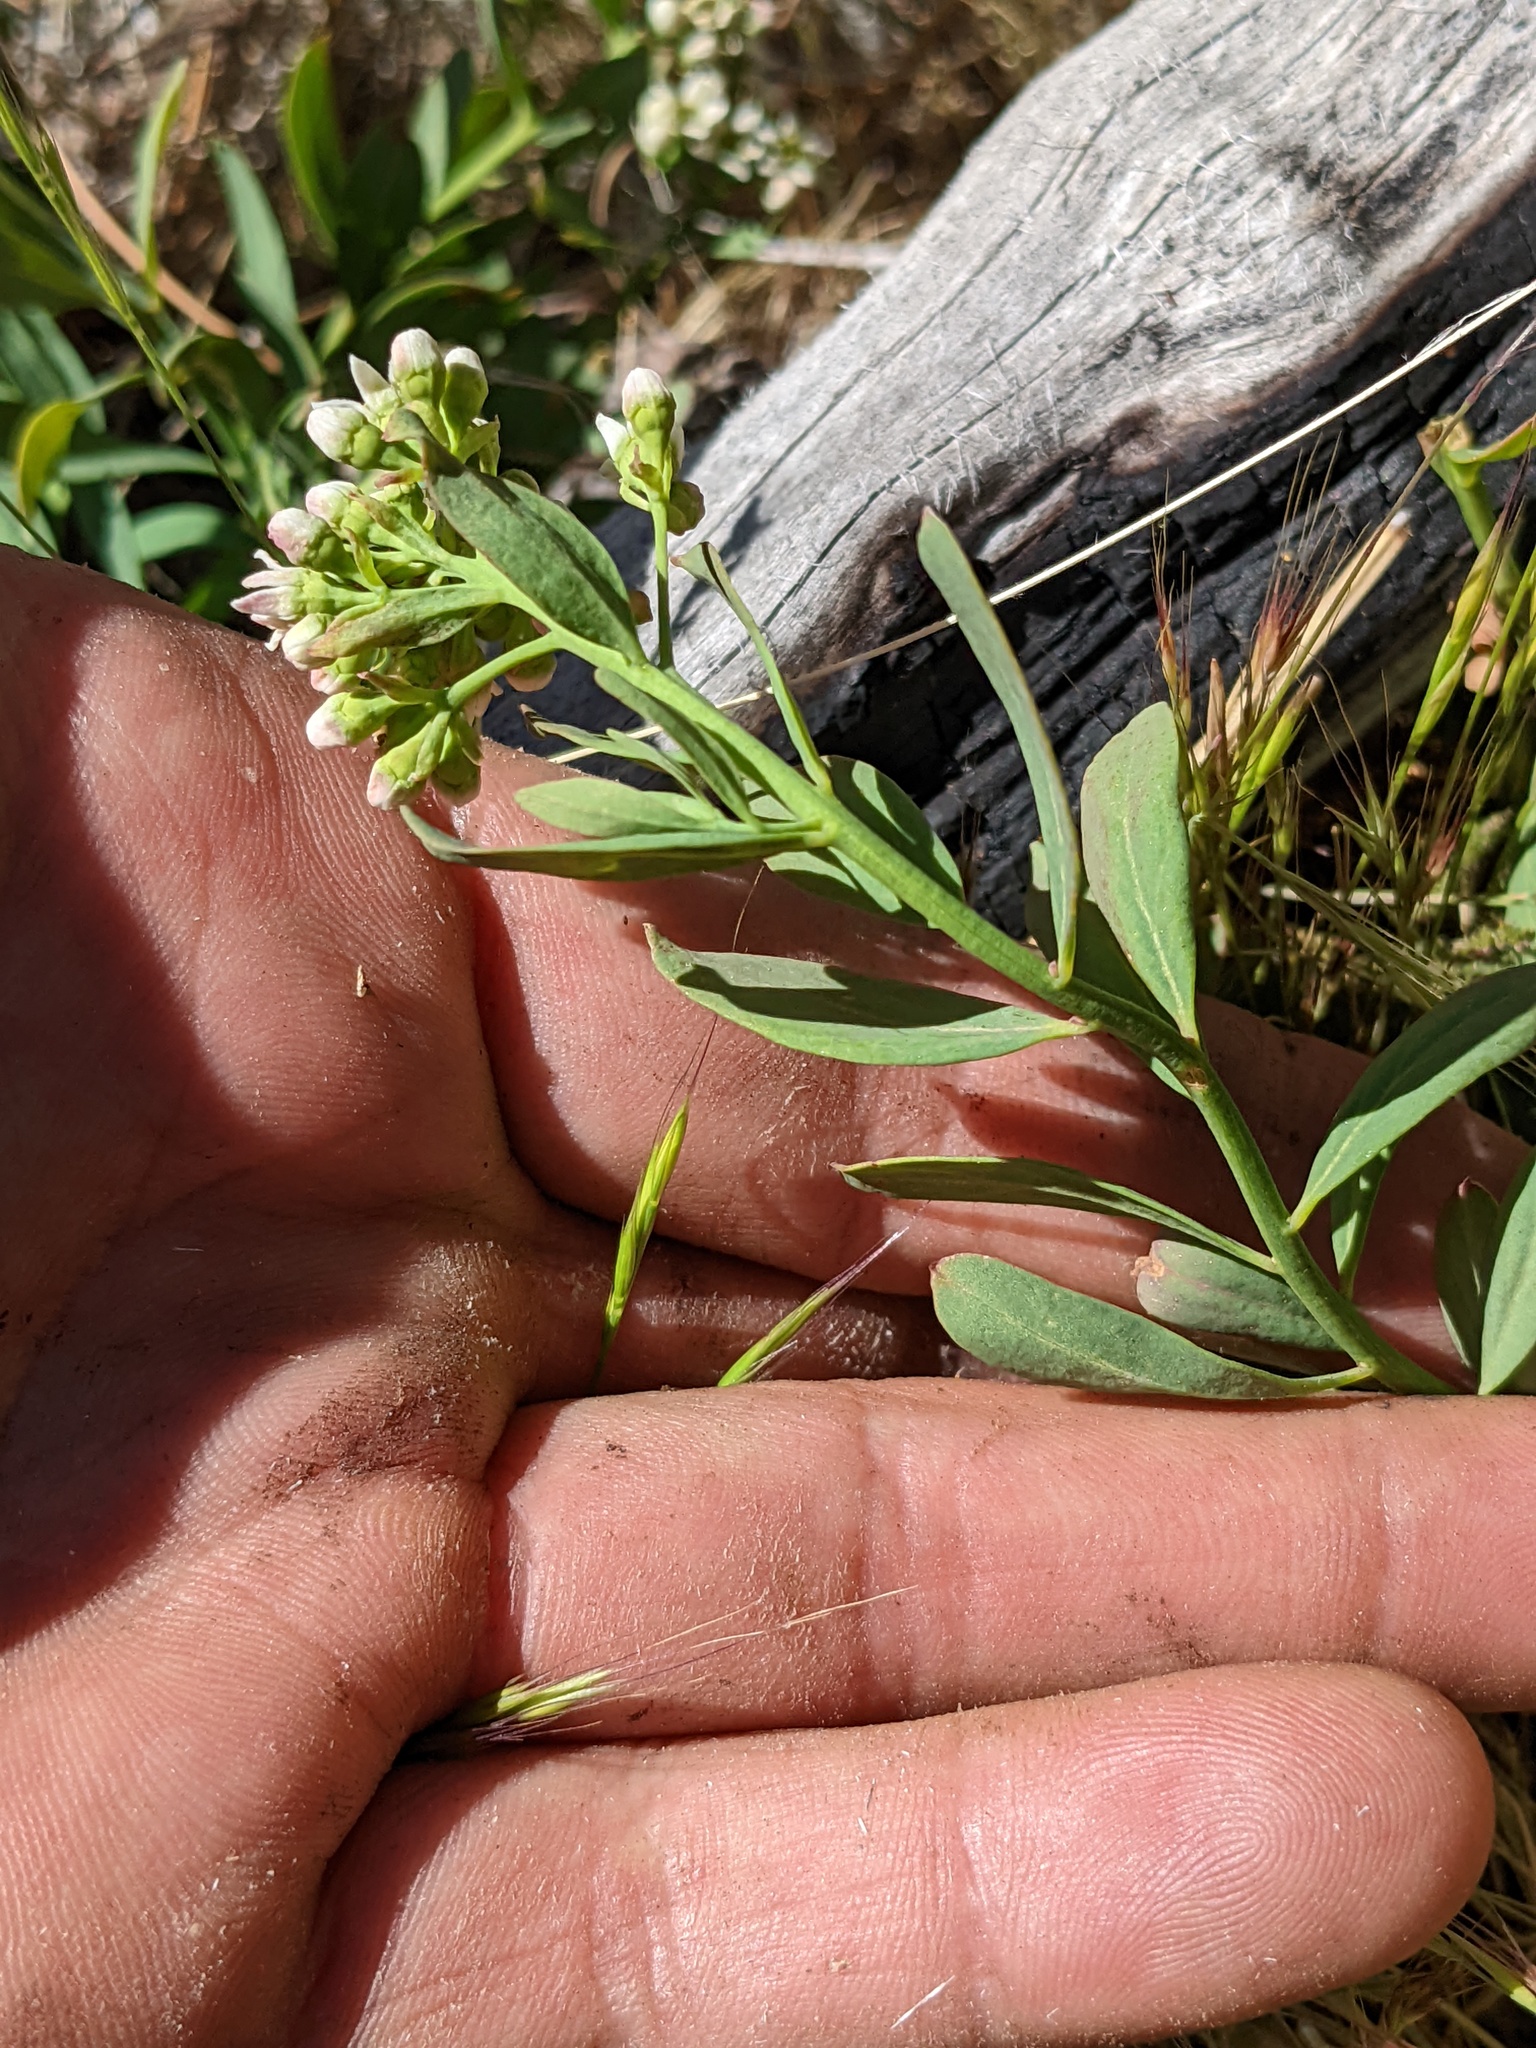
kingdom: Plantae
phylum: Tracheophyta
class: Magnoliopsida
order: Santalales
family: Comandraceae
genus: Comandra
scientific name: Comandra umbellata
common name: Bastard toadflax
